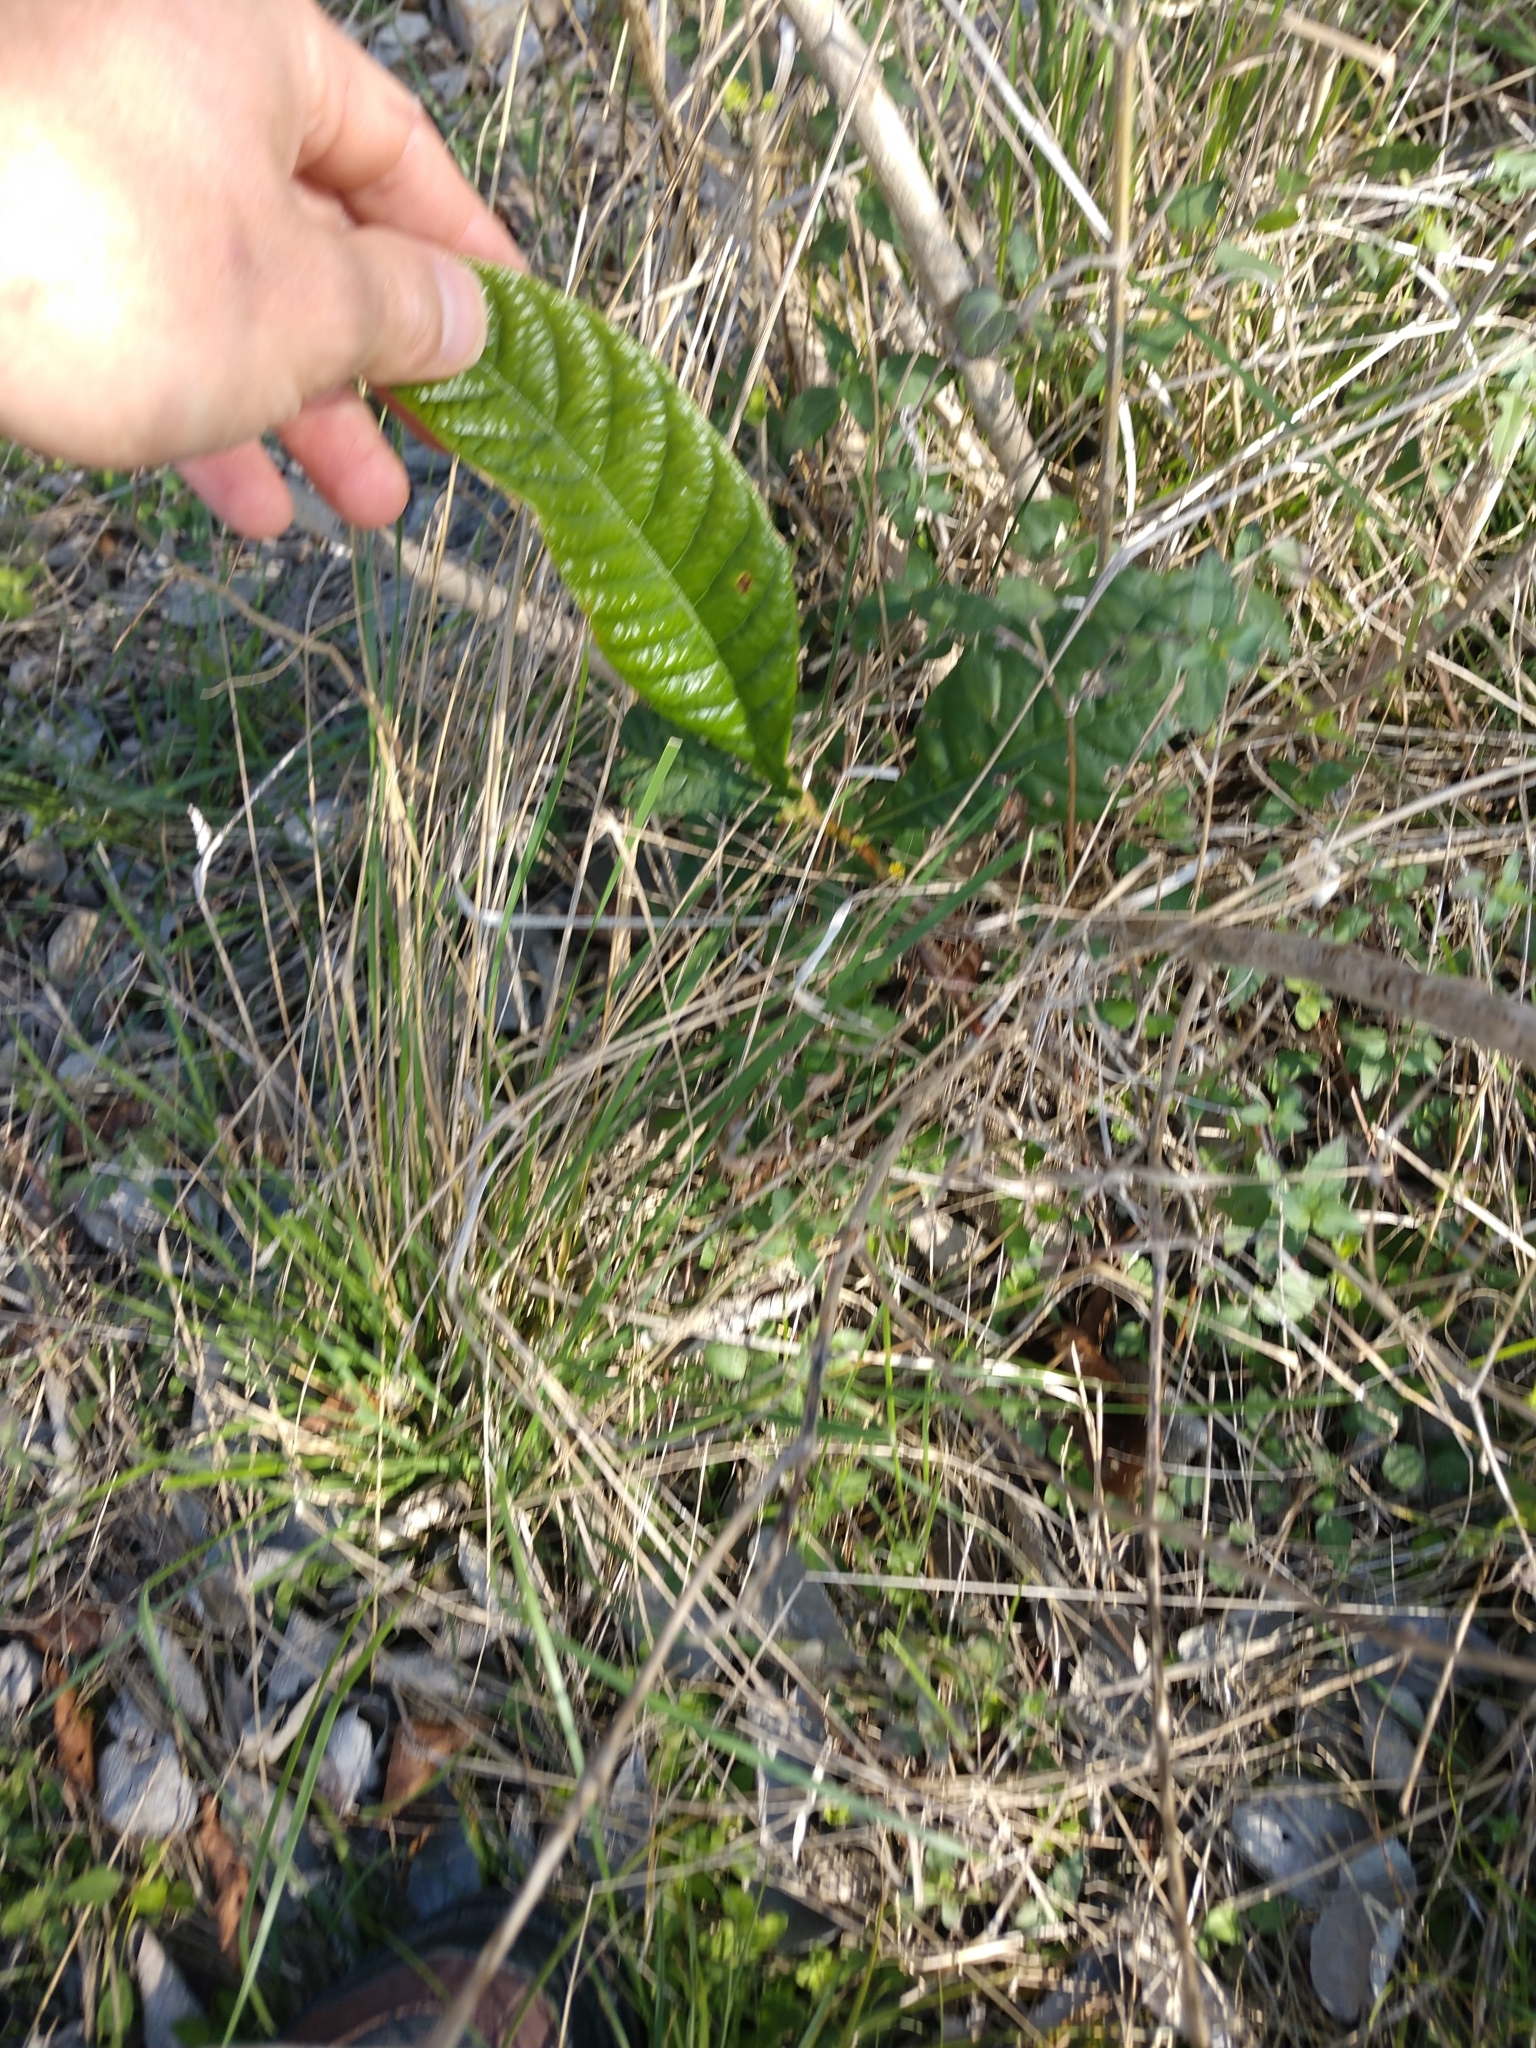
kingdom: Plantae
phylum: Tracheophyta
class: Magnoliopsida
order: Rosales
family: Rosaceae
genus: Rhaphiolepis
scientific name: Rhaphiolepis bibas
